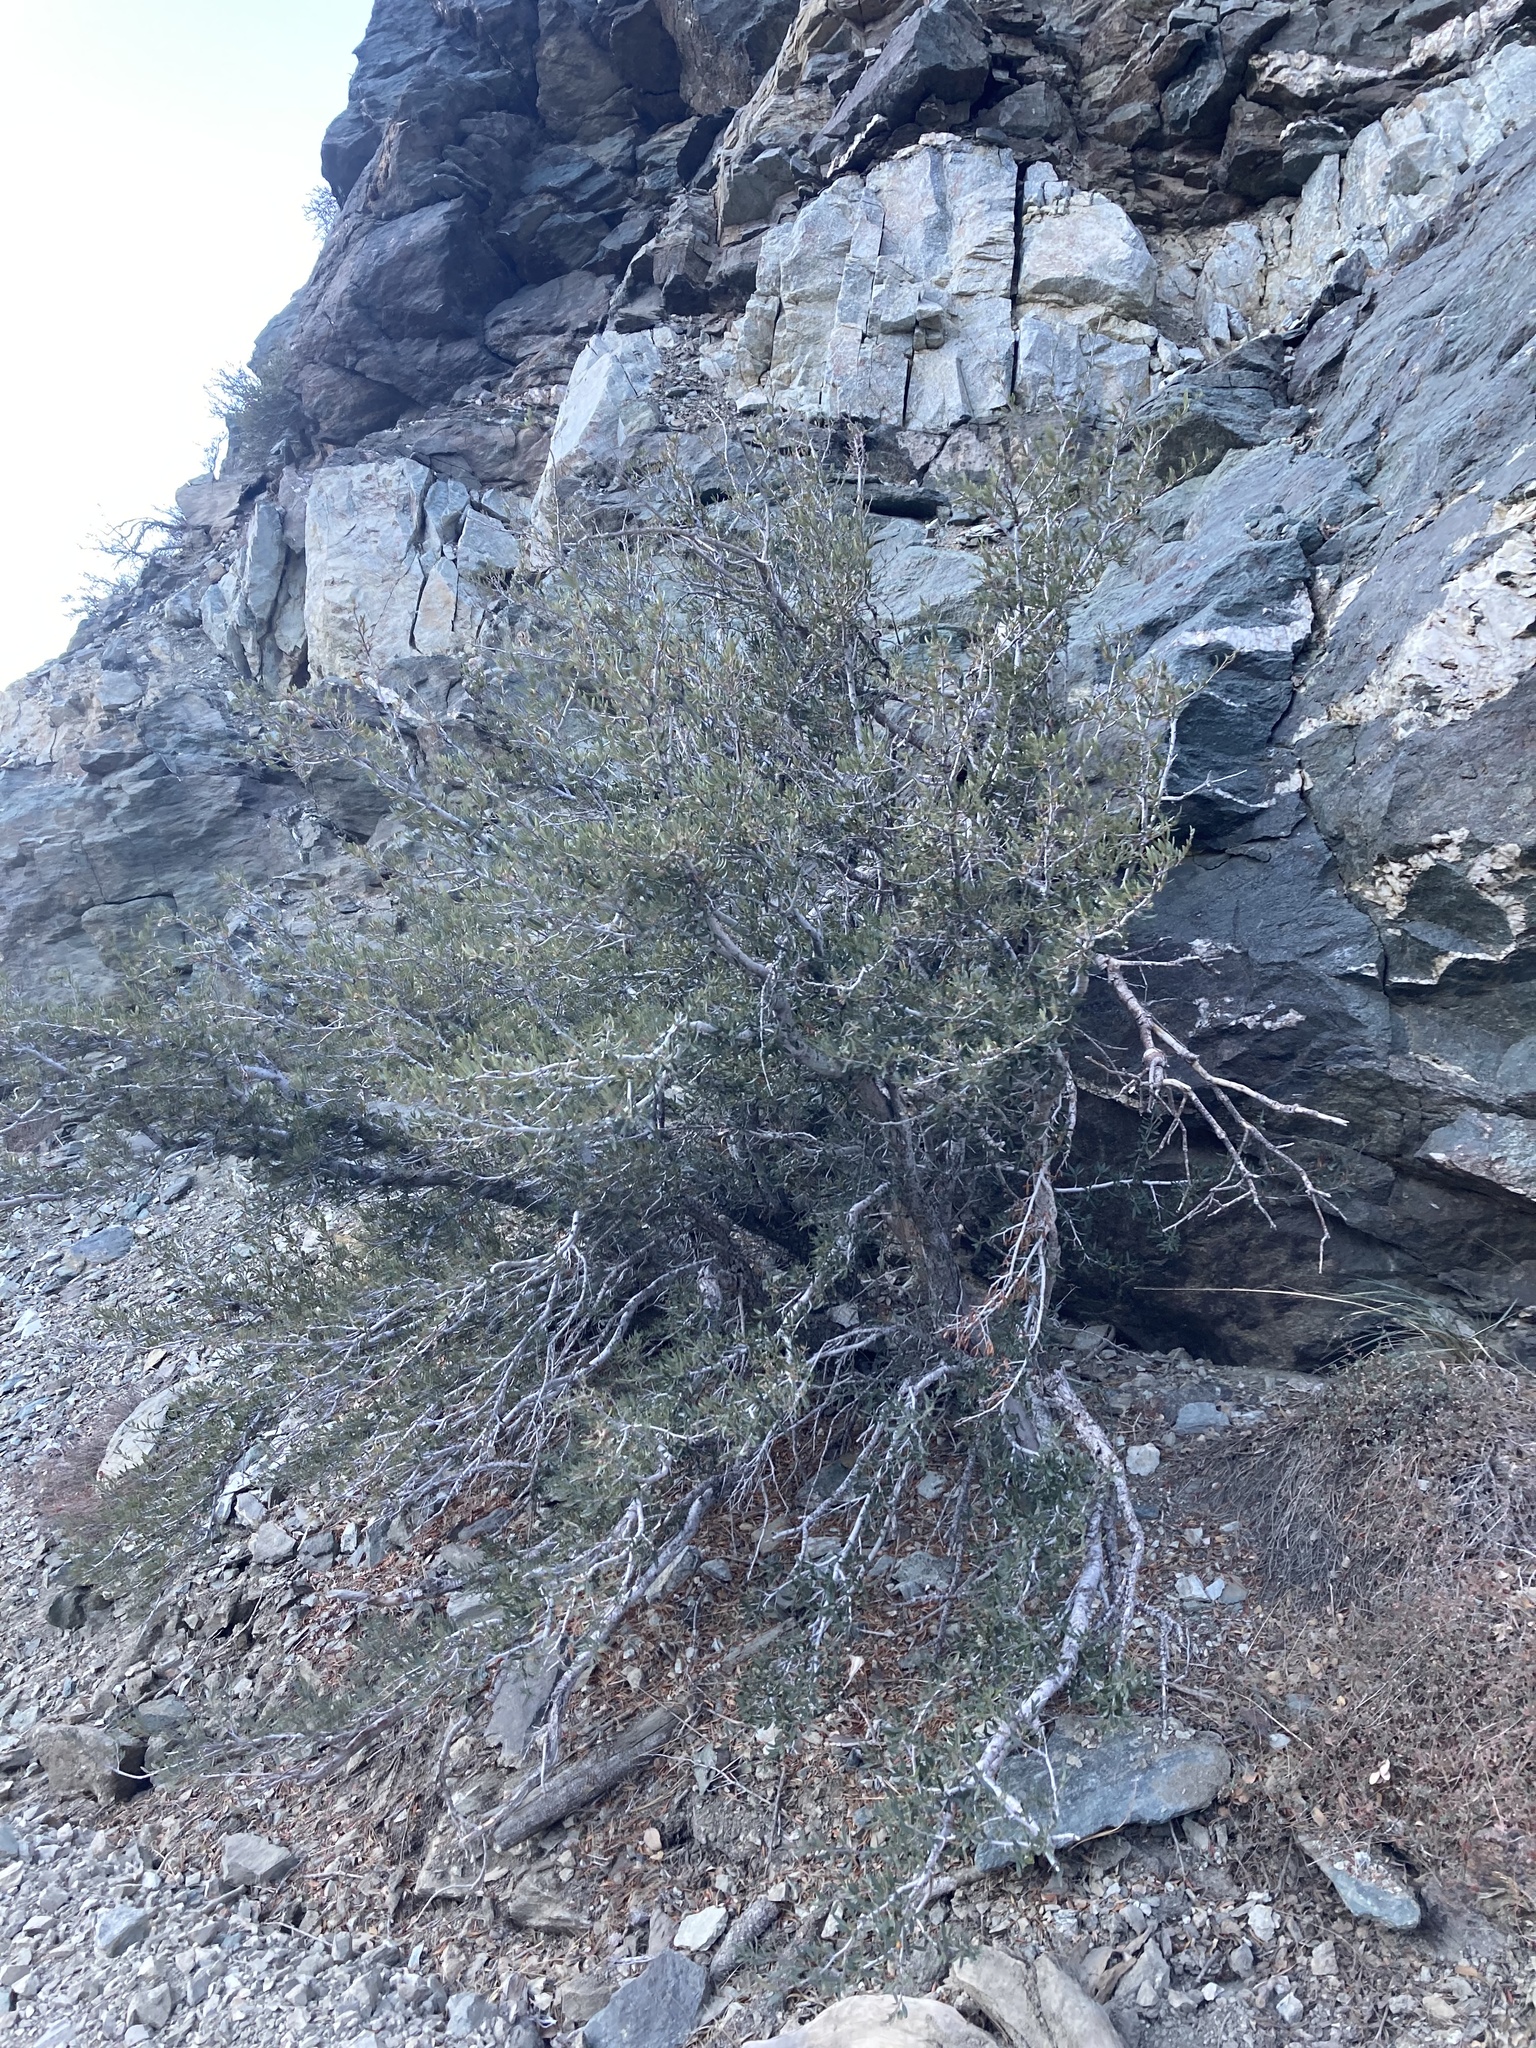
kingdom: Plantae
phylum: Tracheophyta
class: Magnoliopsida
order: Rosales
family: Rosaceae
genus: Cercocarpus
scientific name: Cercocarpus ledifolius
